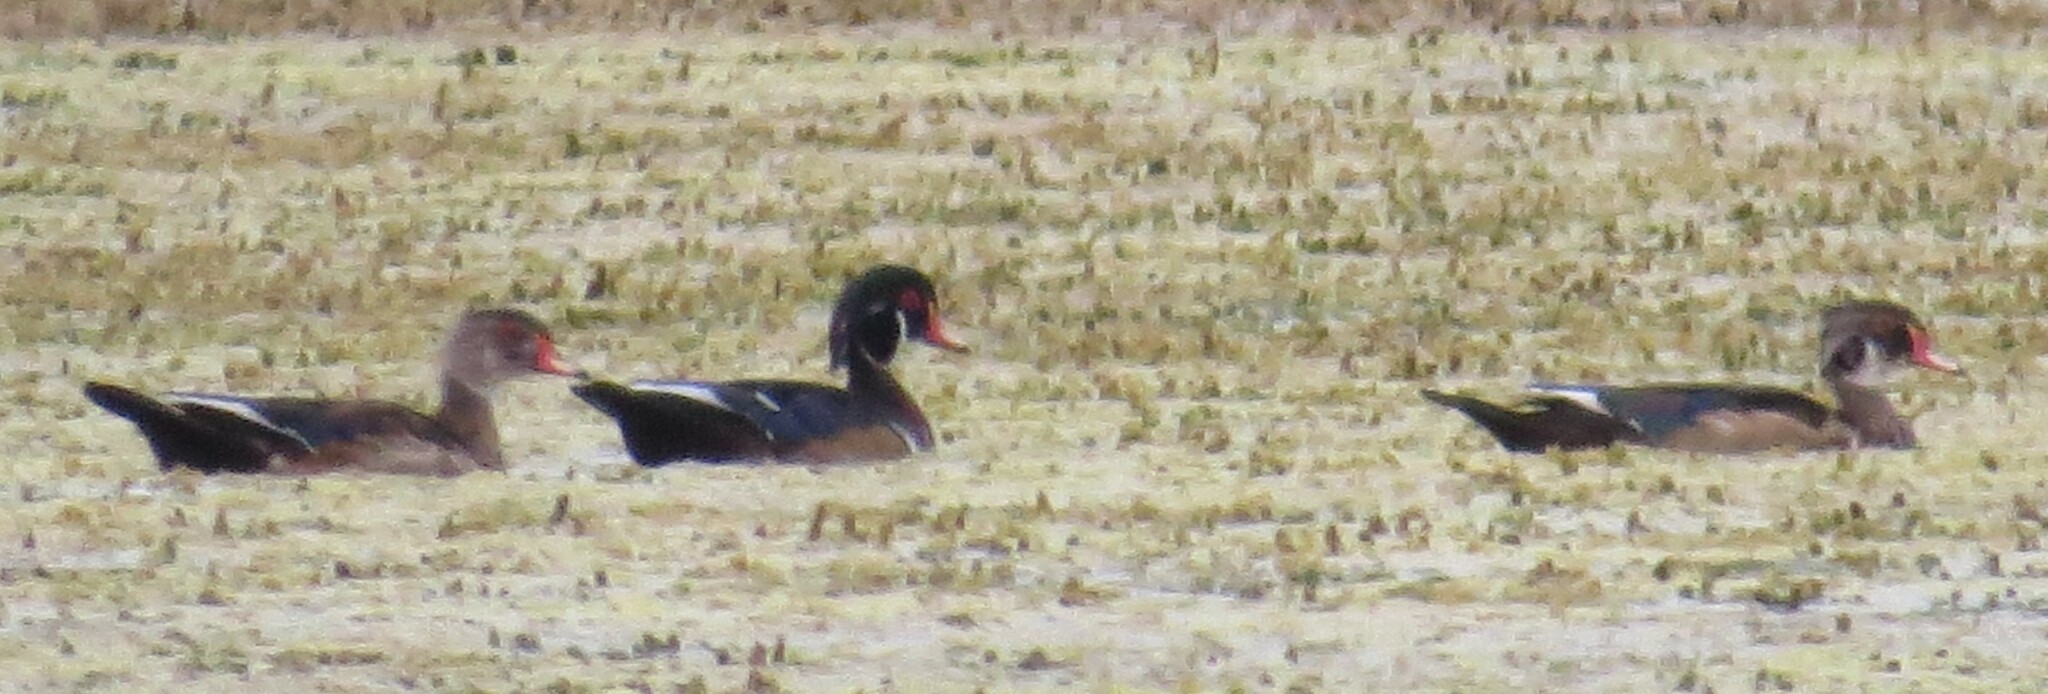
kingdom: Animalia
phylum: Chordata
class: Aves
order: Anseriformes
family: Anatidae
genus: Aix
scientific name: Aix sponsa
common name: Wood duck
